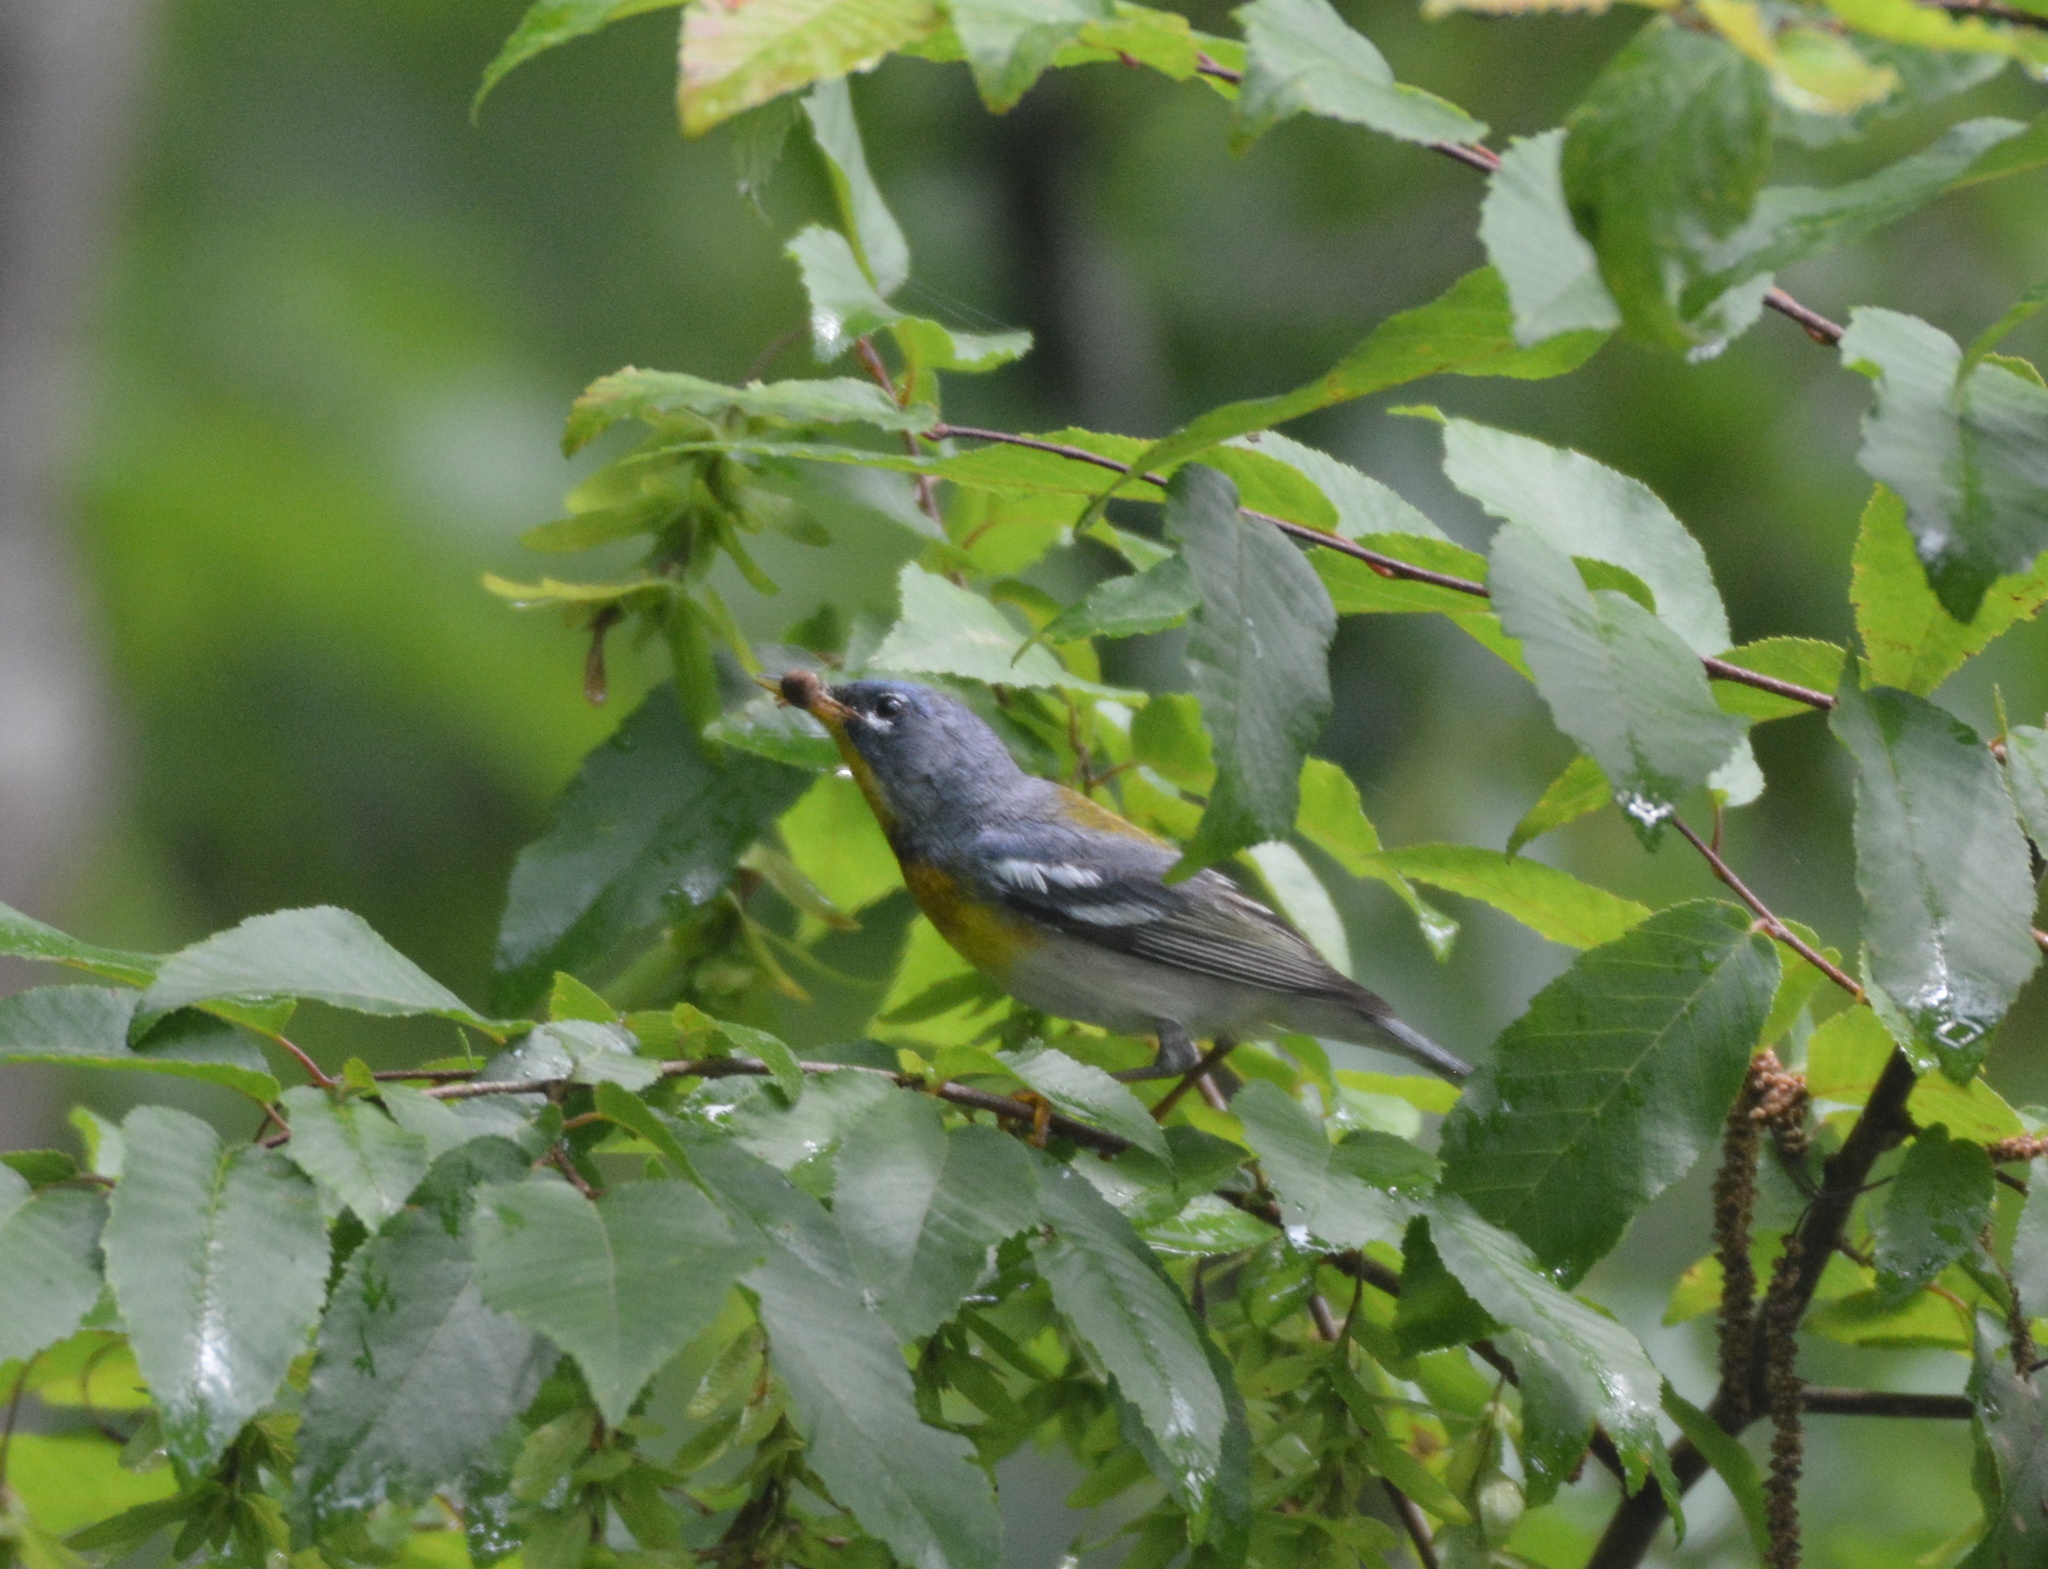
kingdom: Animalia
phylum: Chordata
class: Aves
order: Passeriformes
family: Parulidae
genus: Setophaga
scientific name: Setophaga americana
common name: Northern parula
